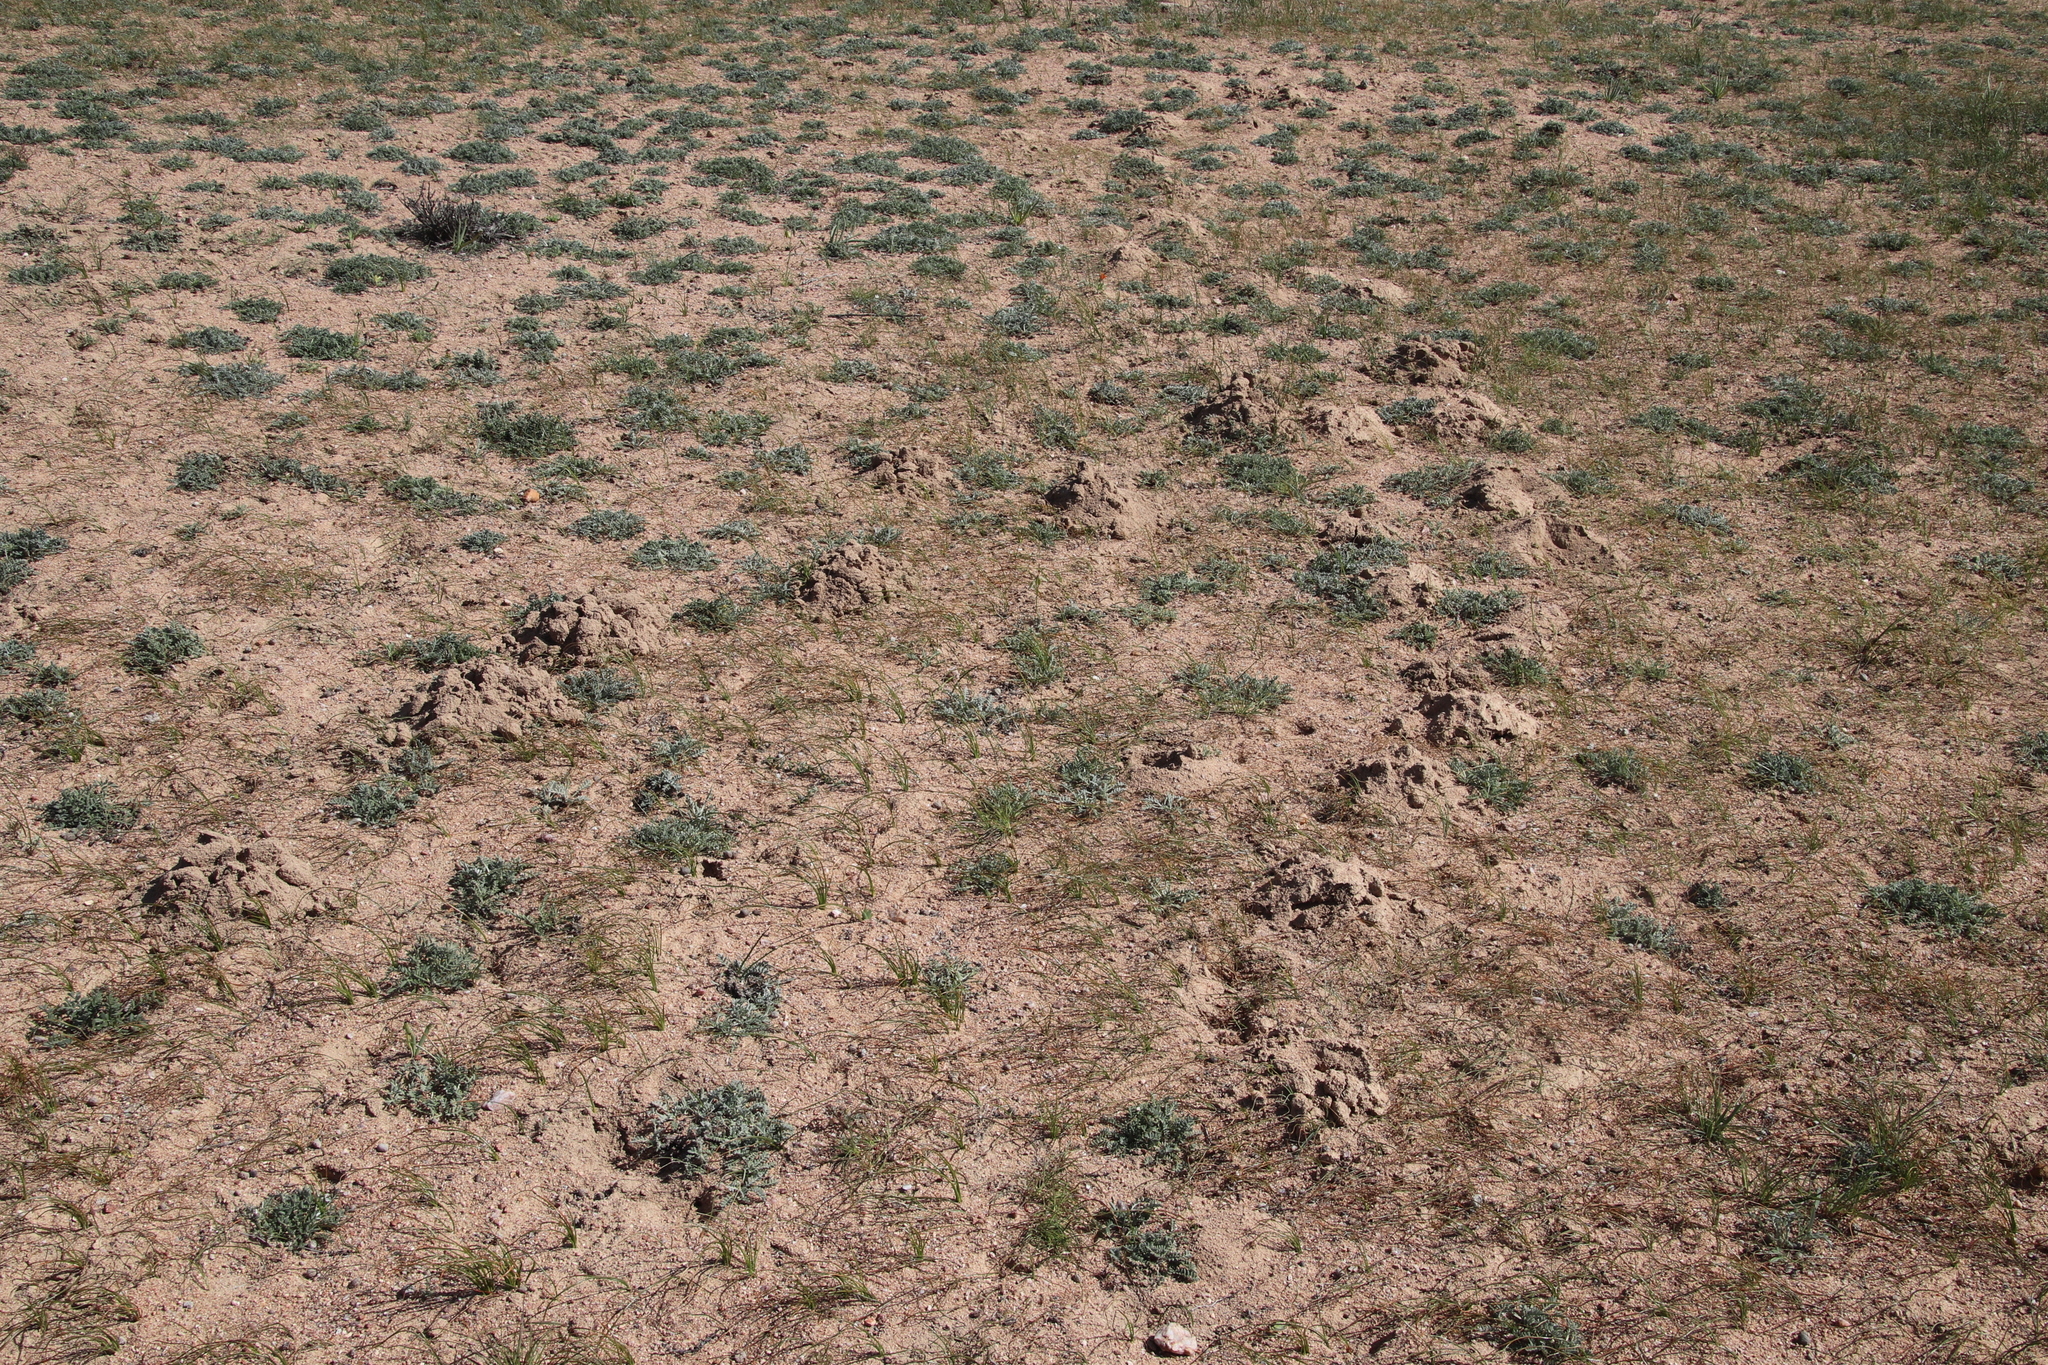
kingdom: Animalia
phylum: Chordata
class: Mammalia
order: Rodentia
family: Bathyergidae
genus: Cryptomys
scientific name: Cryptomys hottentotus
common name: Southern african mole-rat
